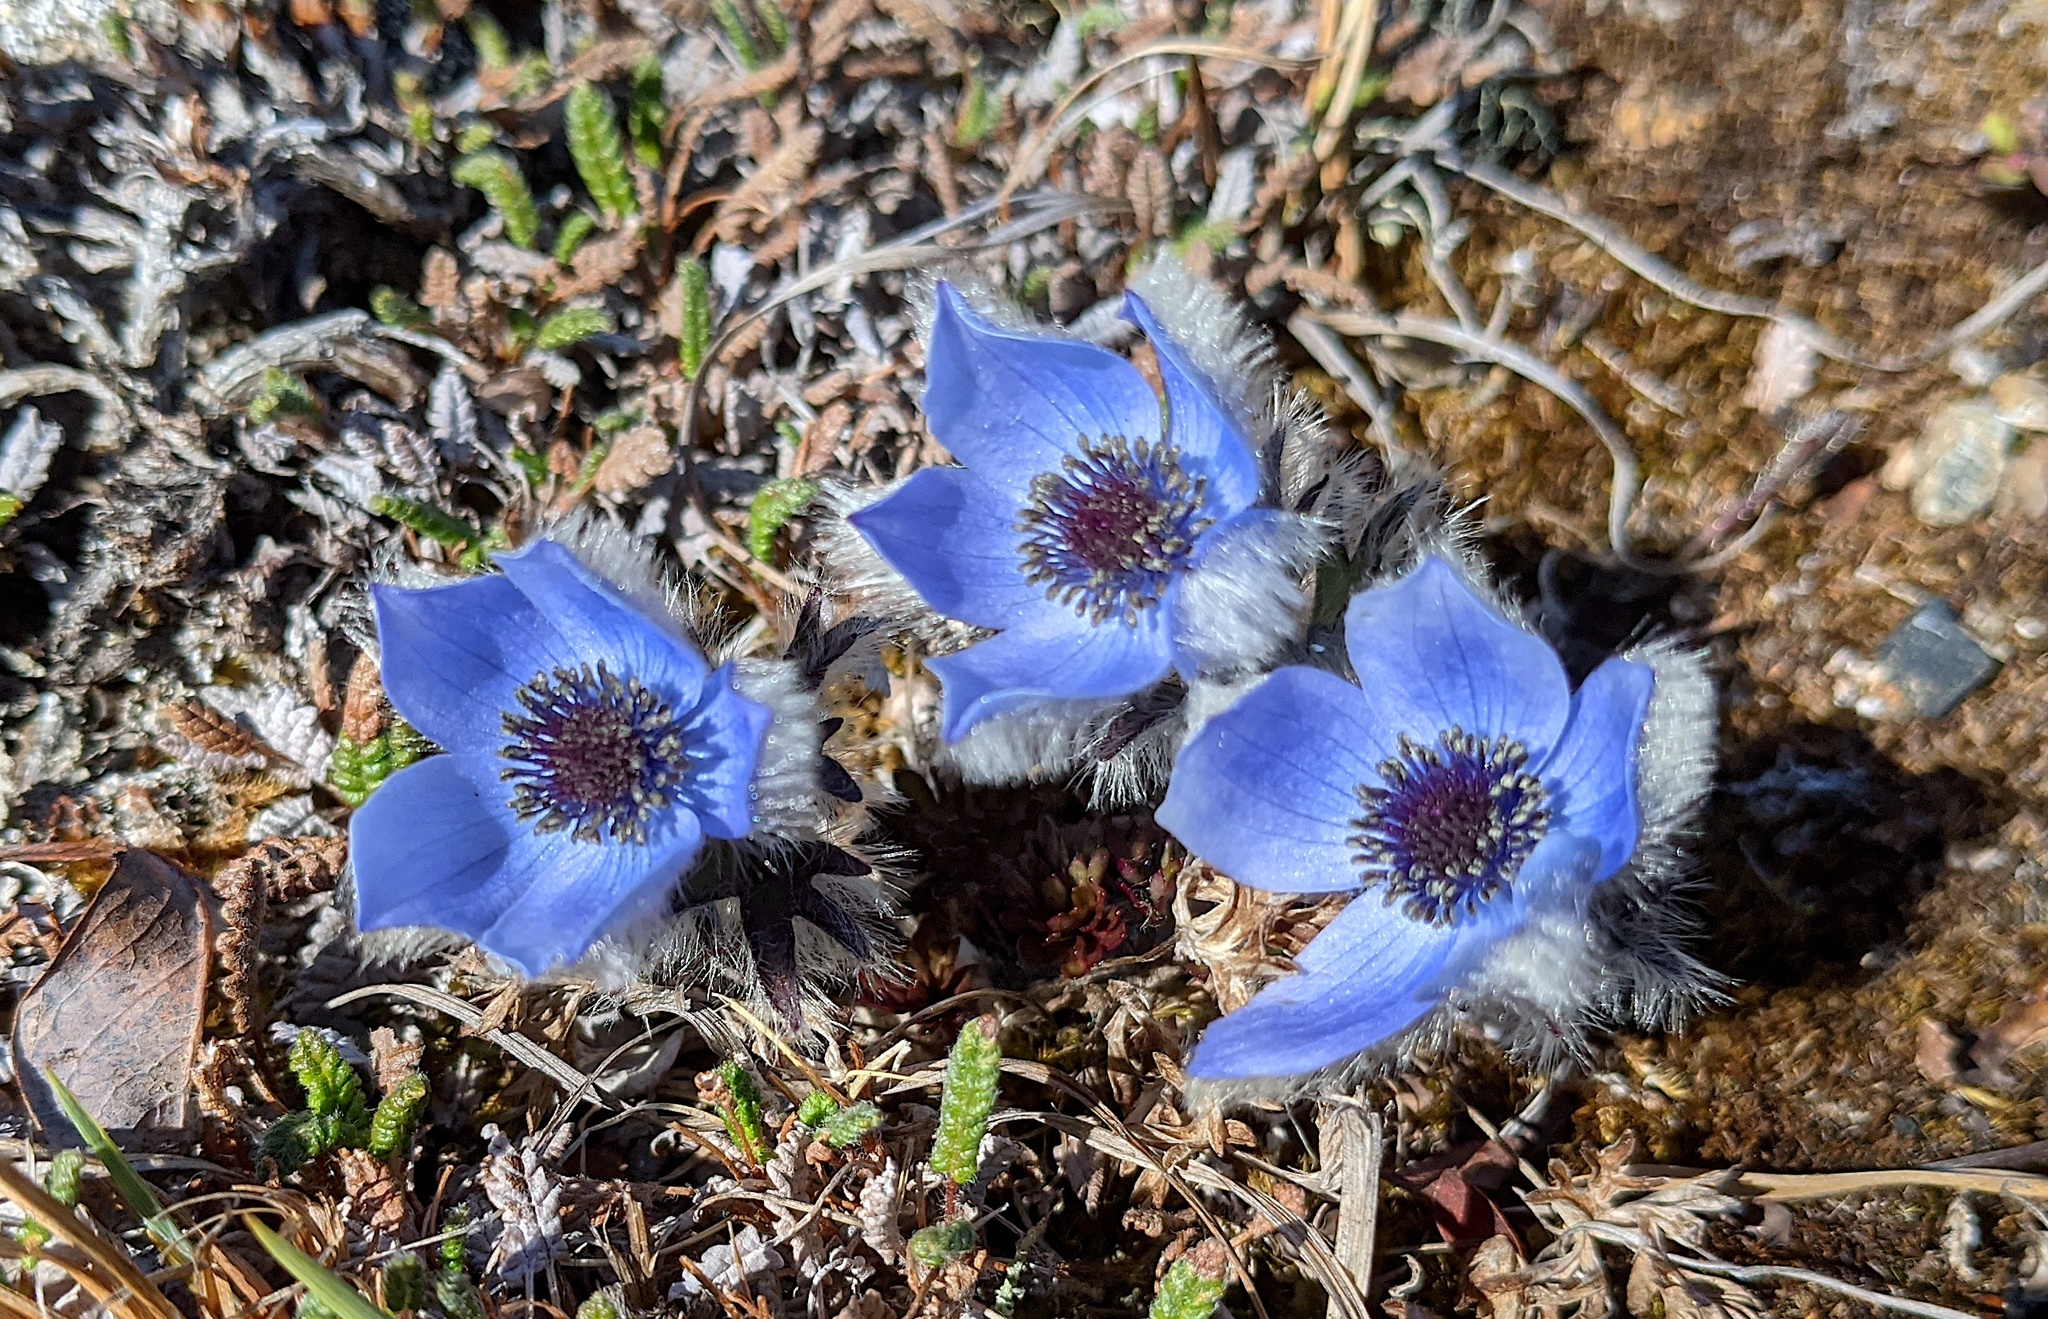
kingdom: Plantae
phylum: Tracheophyta
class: Magnoliopsida
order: Ranunculales
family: Ranunculaceae
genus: Pulsatilla
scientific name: Pulsatilla multiceps
